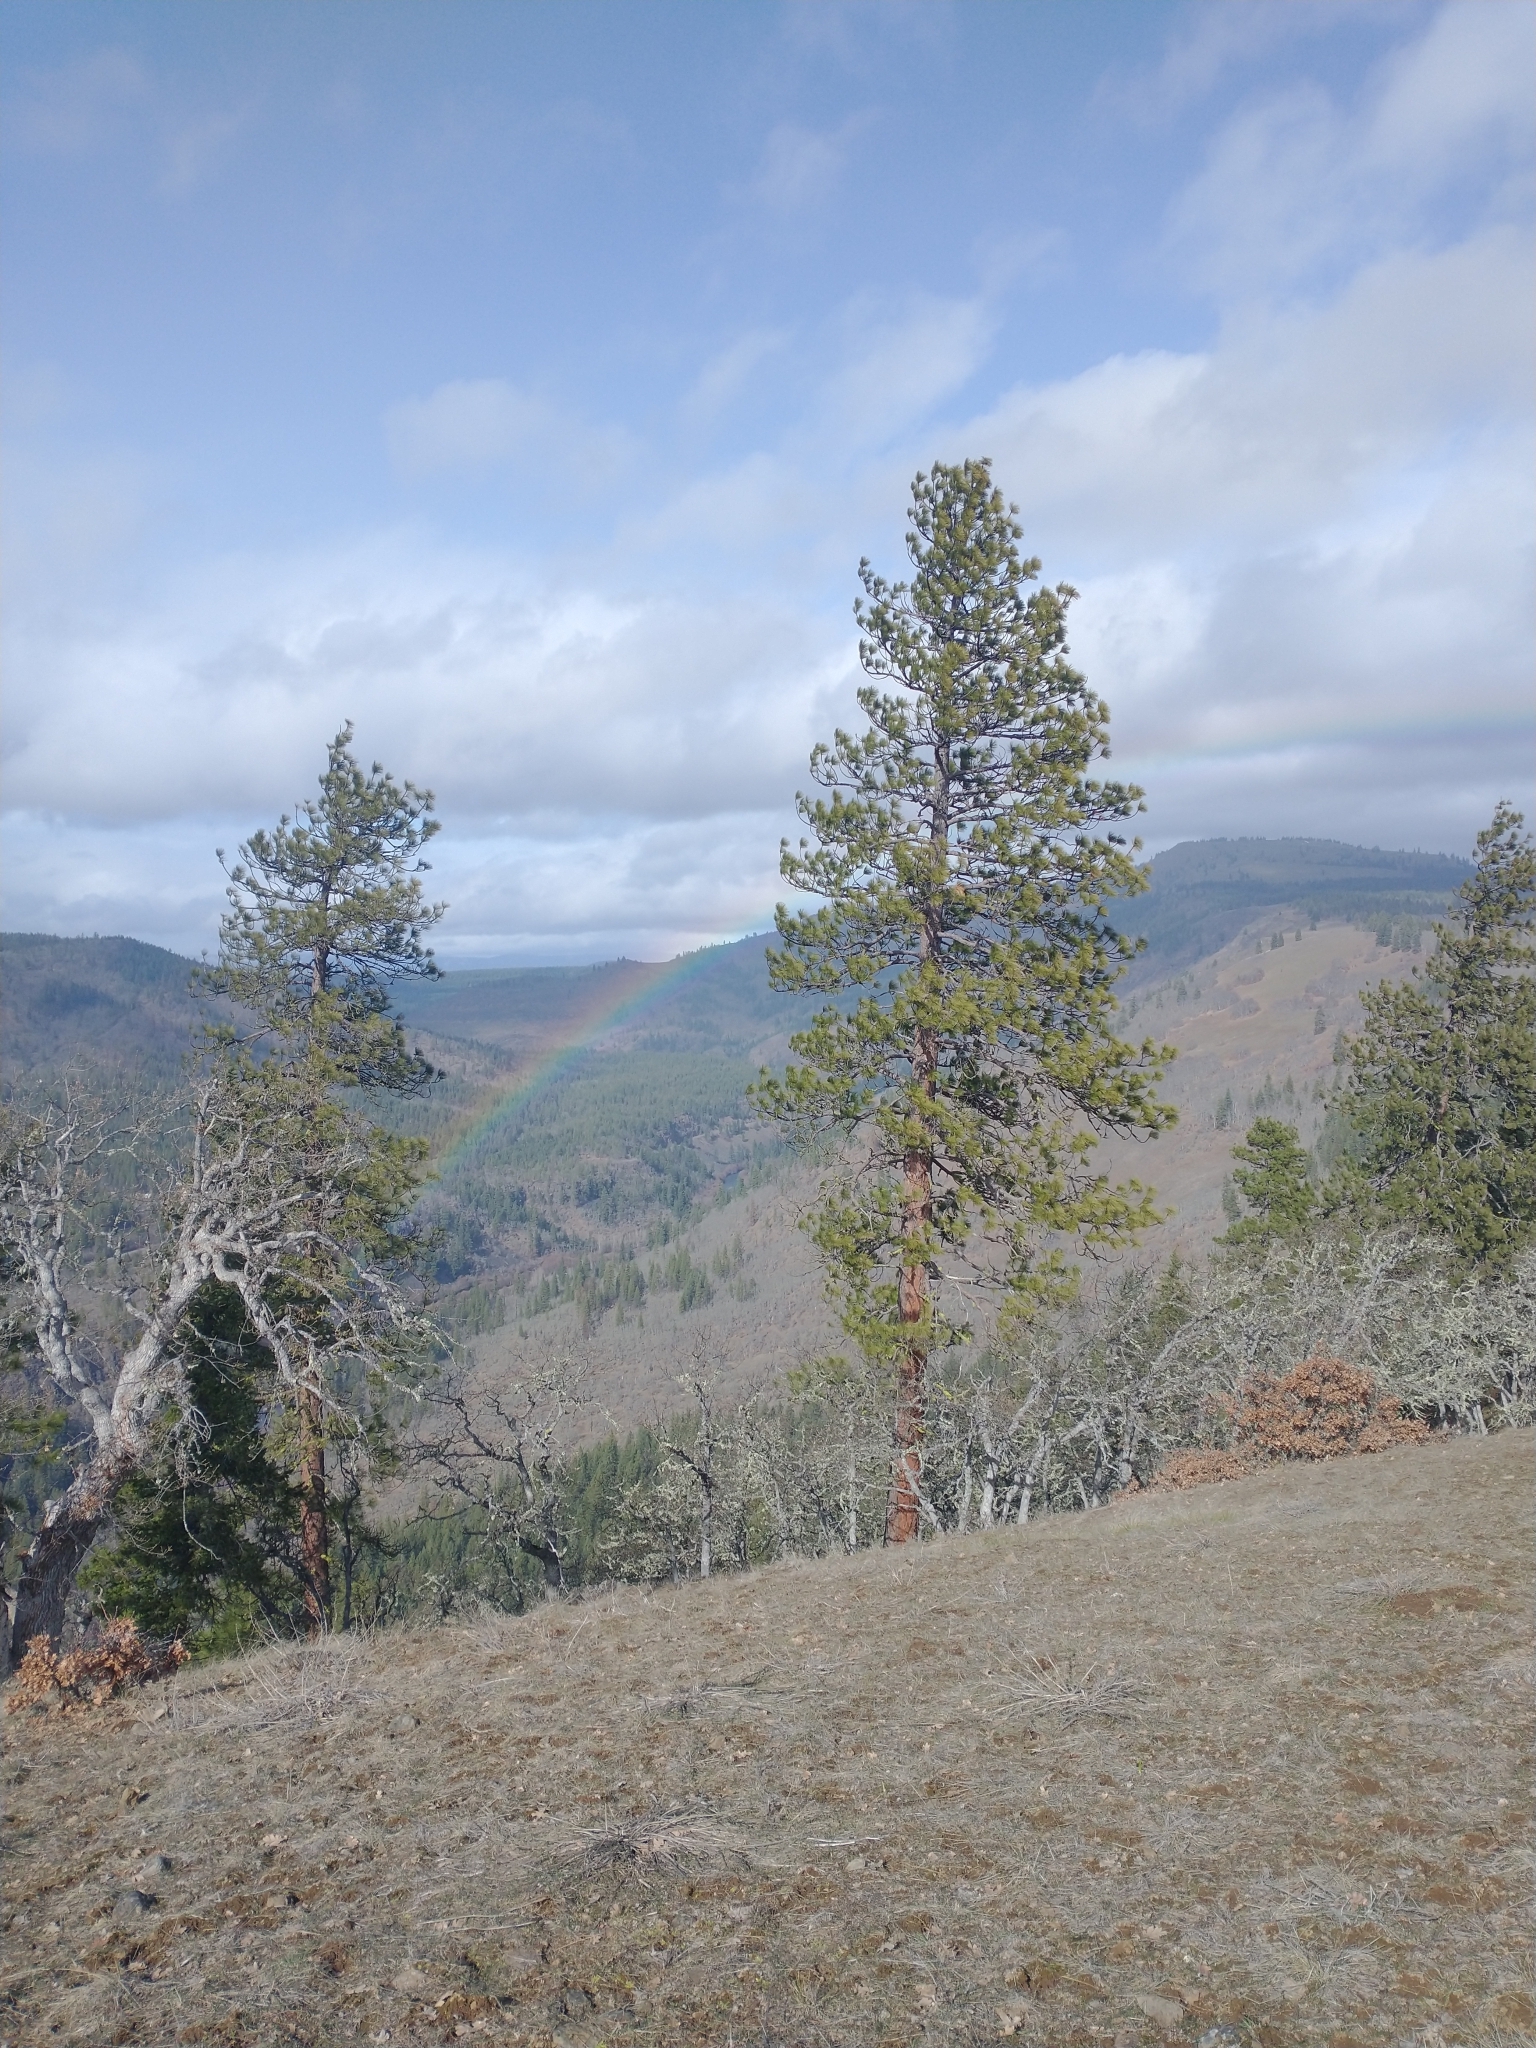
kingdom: Plantae
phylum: Tracheophyta
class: Pinopsida
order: Pinales
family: Pinaceae
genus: Pinus
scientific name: Pinus ponderosa
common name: Western yellow-pine
